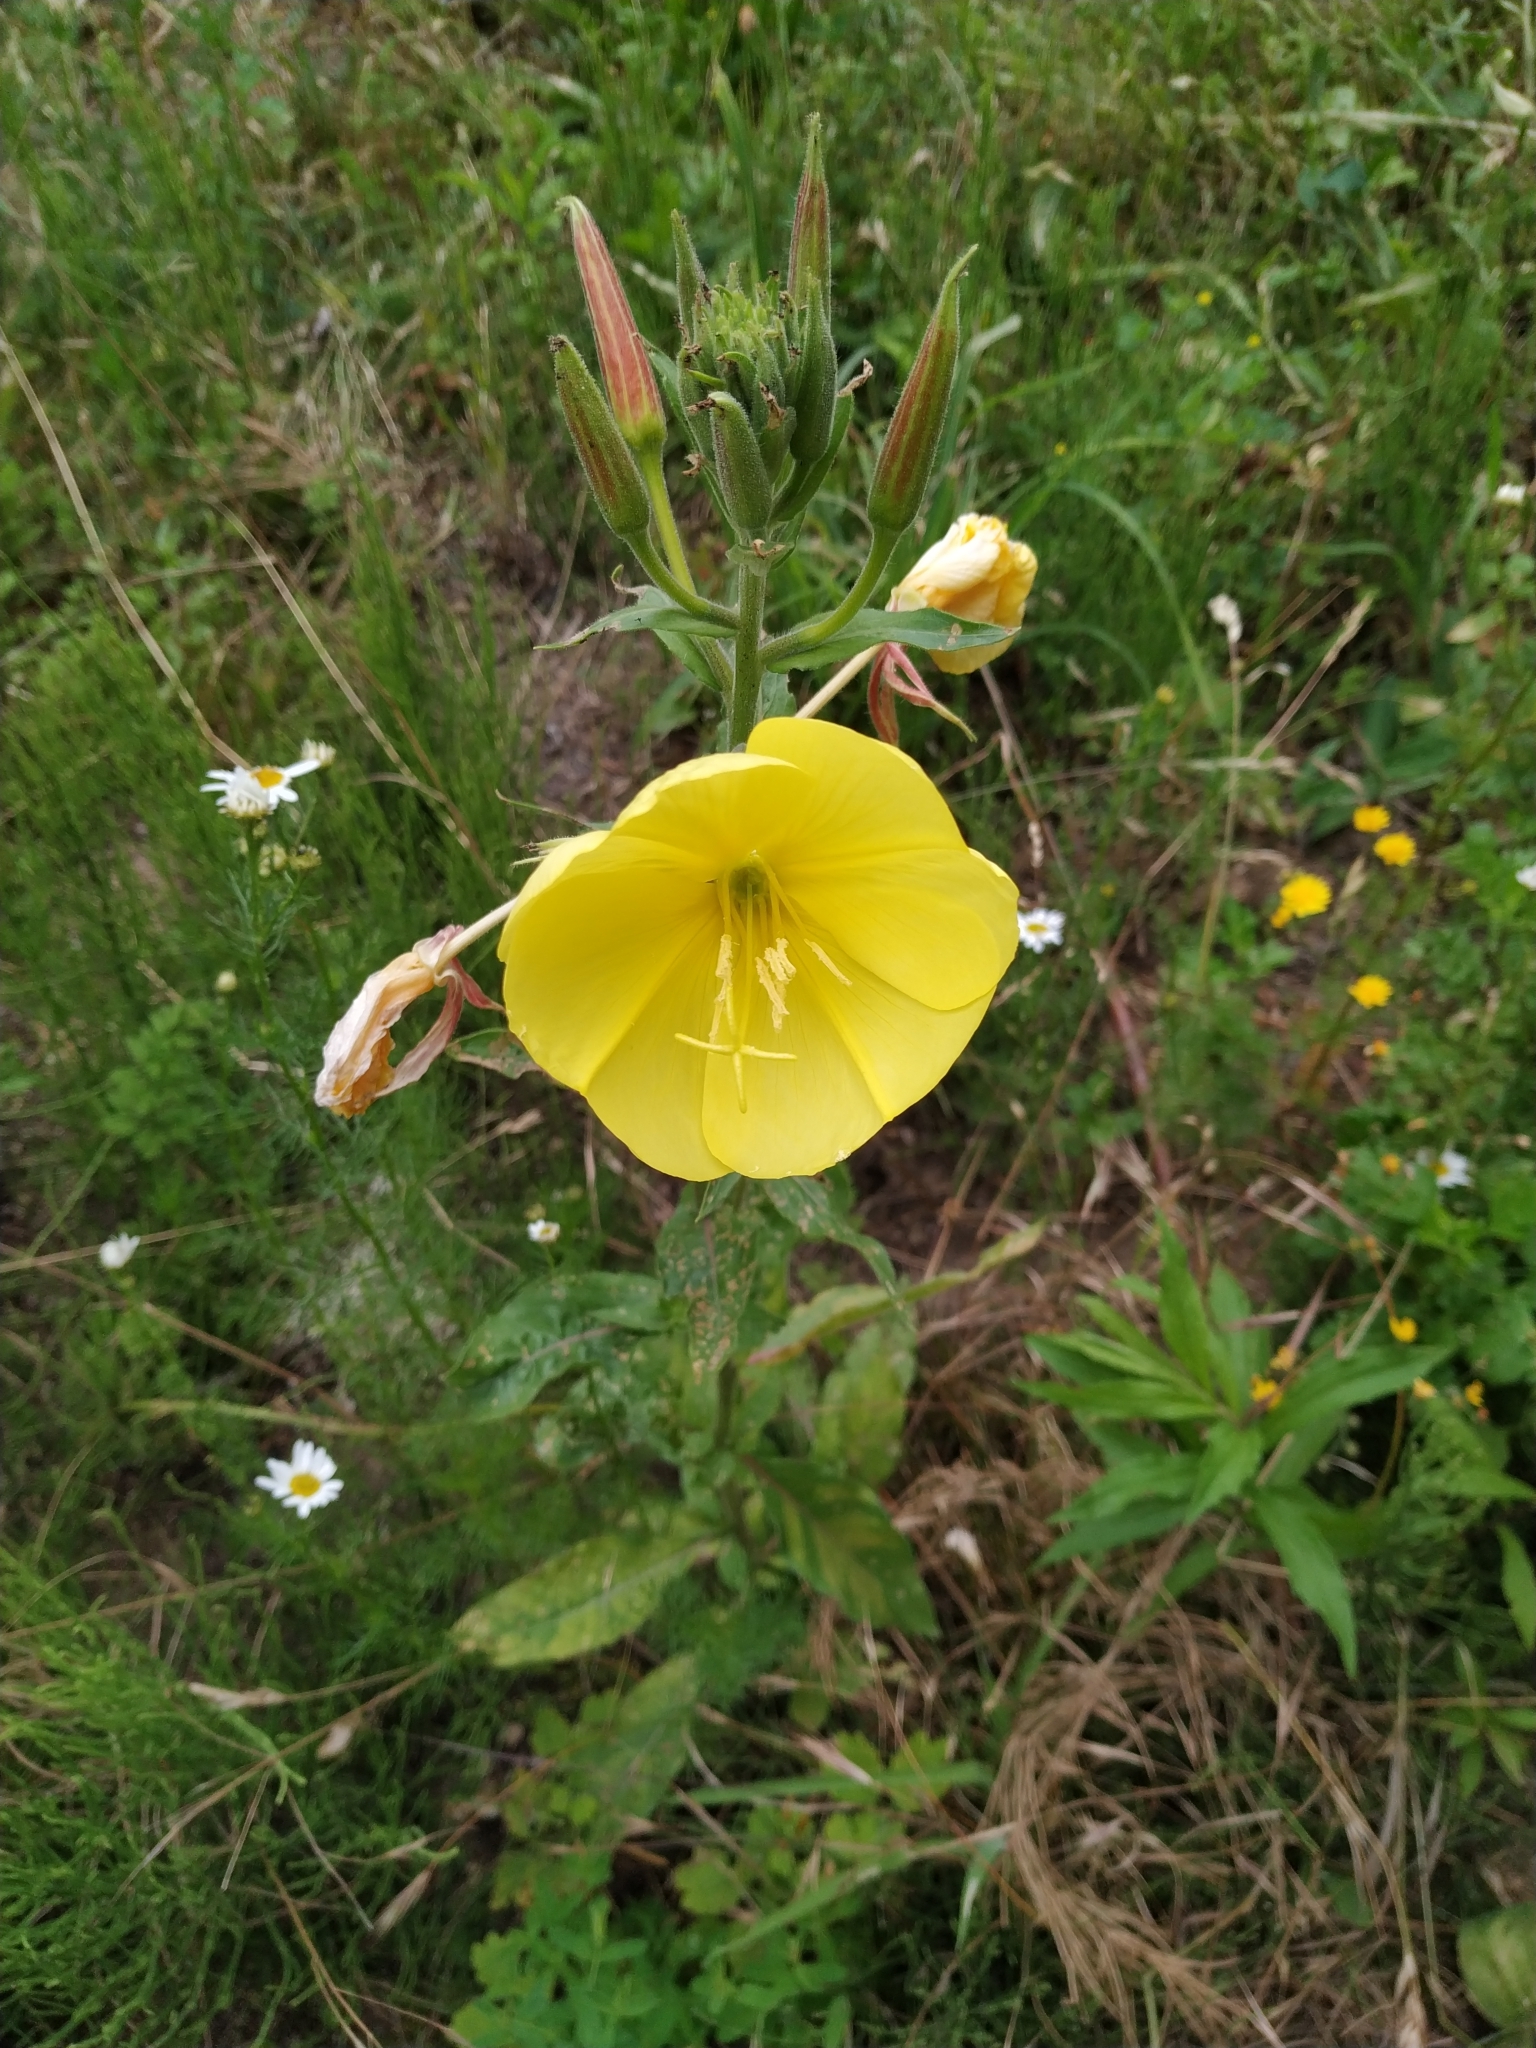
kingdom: Plantae
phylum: Tracheophyta
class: Magnoliopsida
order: Myrtales
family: Onagraceae
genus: Oenothera
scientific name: Oenothera glazioviana
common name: Large-flowered evening-primrose
